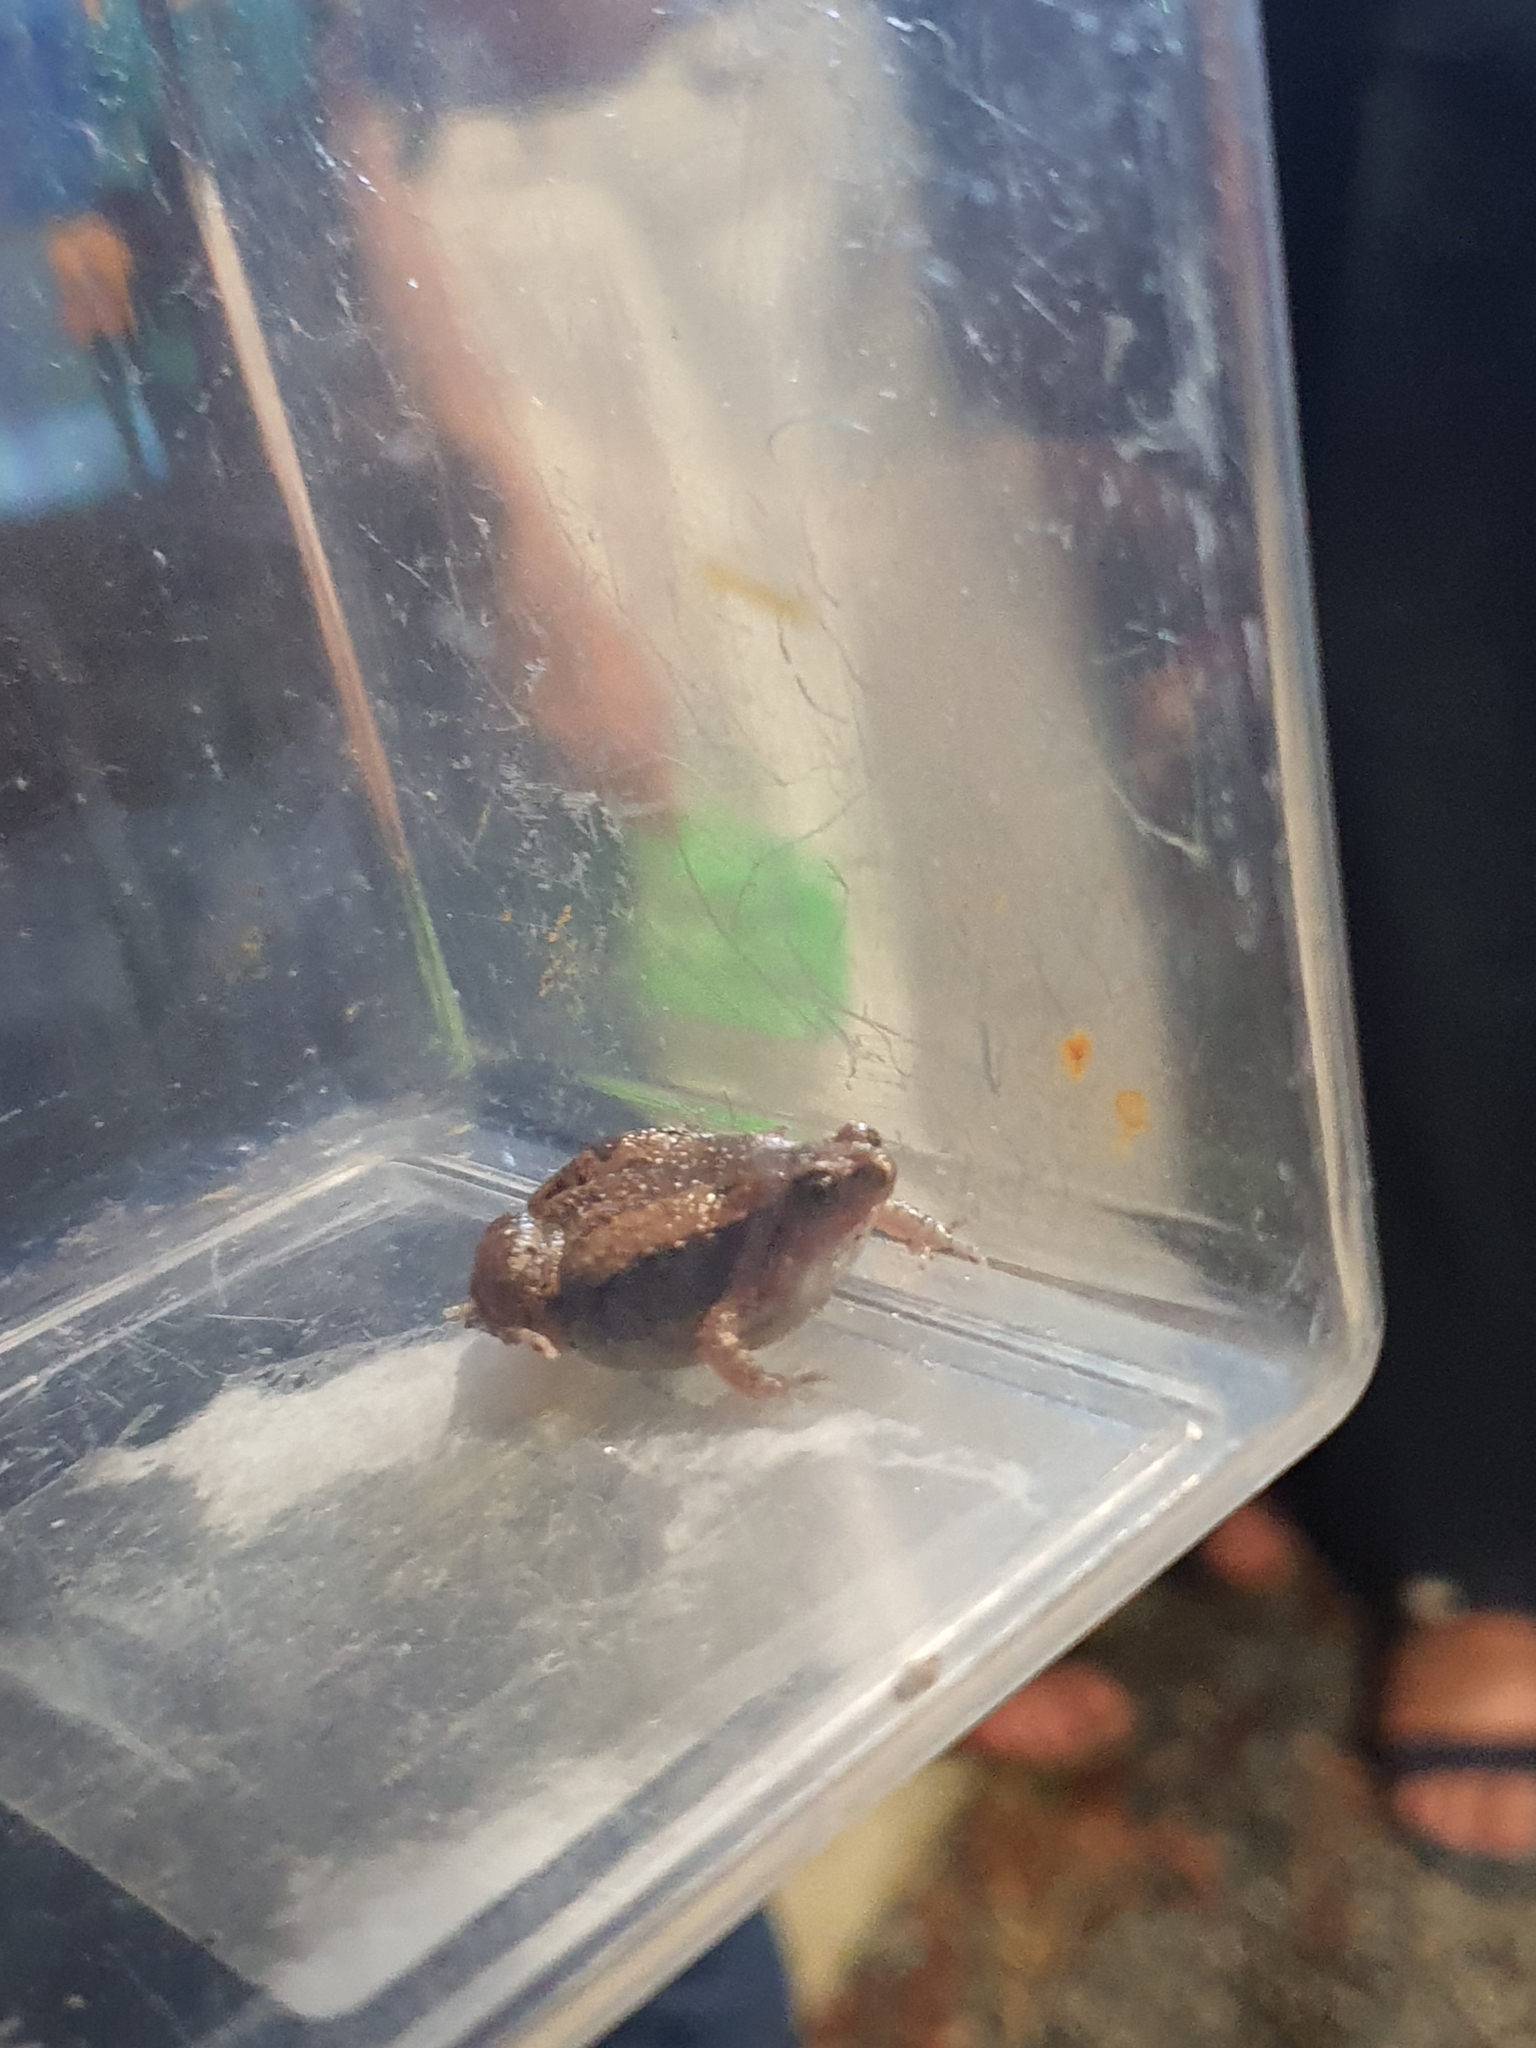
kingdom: Animalia
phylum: Chordata
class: Amphibia
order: Anura
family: Microhylidae
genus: Microhyla
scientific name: Microhyla mukhlesuri
